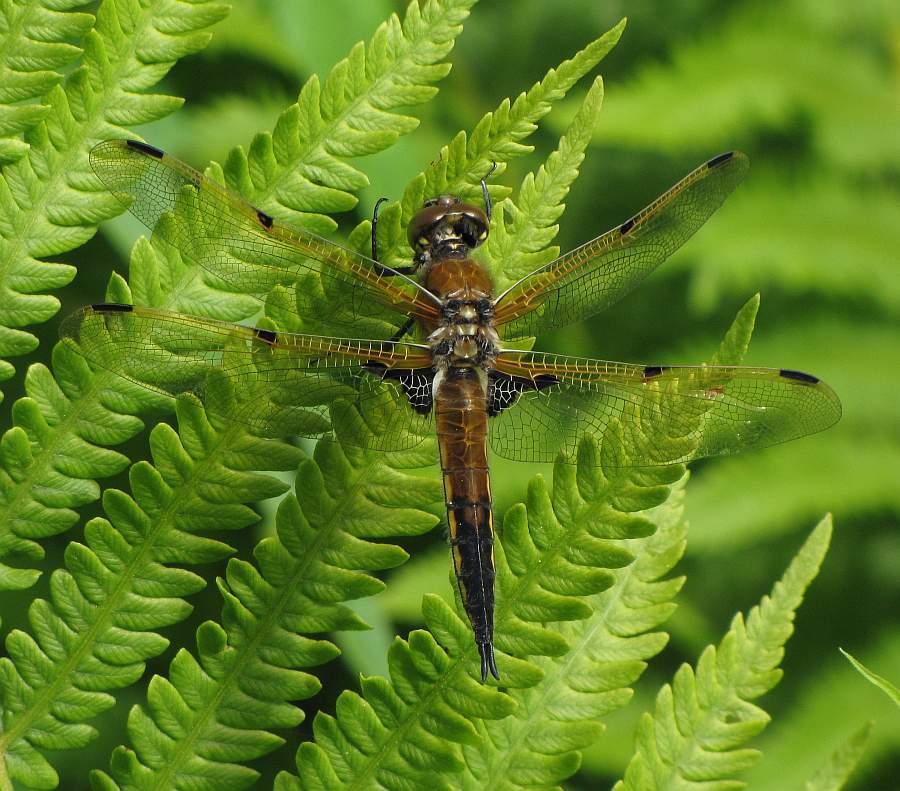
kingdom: Animalia
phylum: Arthropoda
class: Insecta
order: Odonata
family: Libellulidae
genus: Libellula
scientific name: Libellula quadrimaculata
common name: Four-spotted chaser
